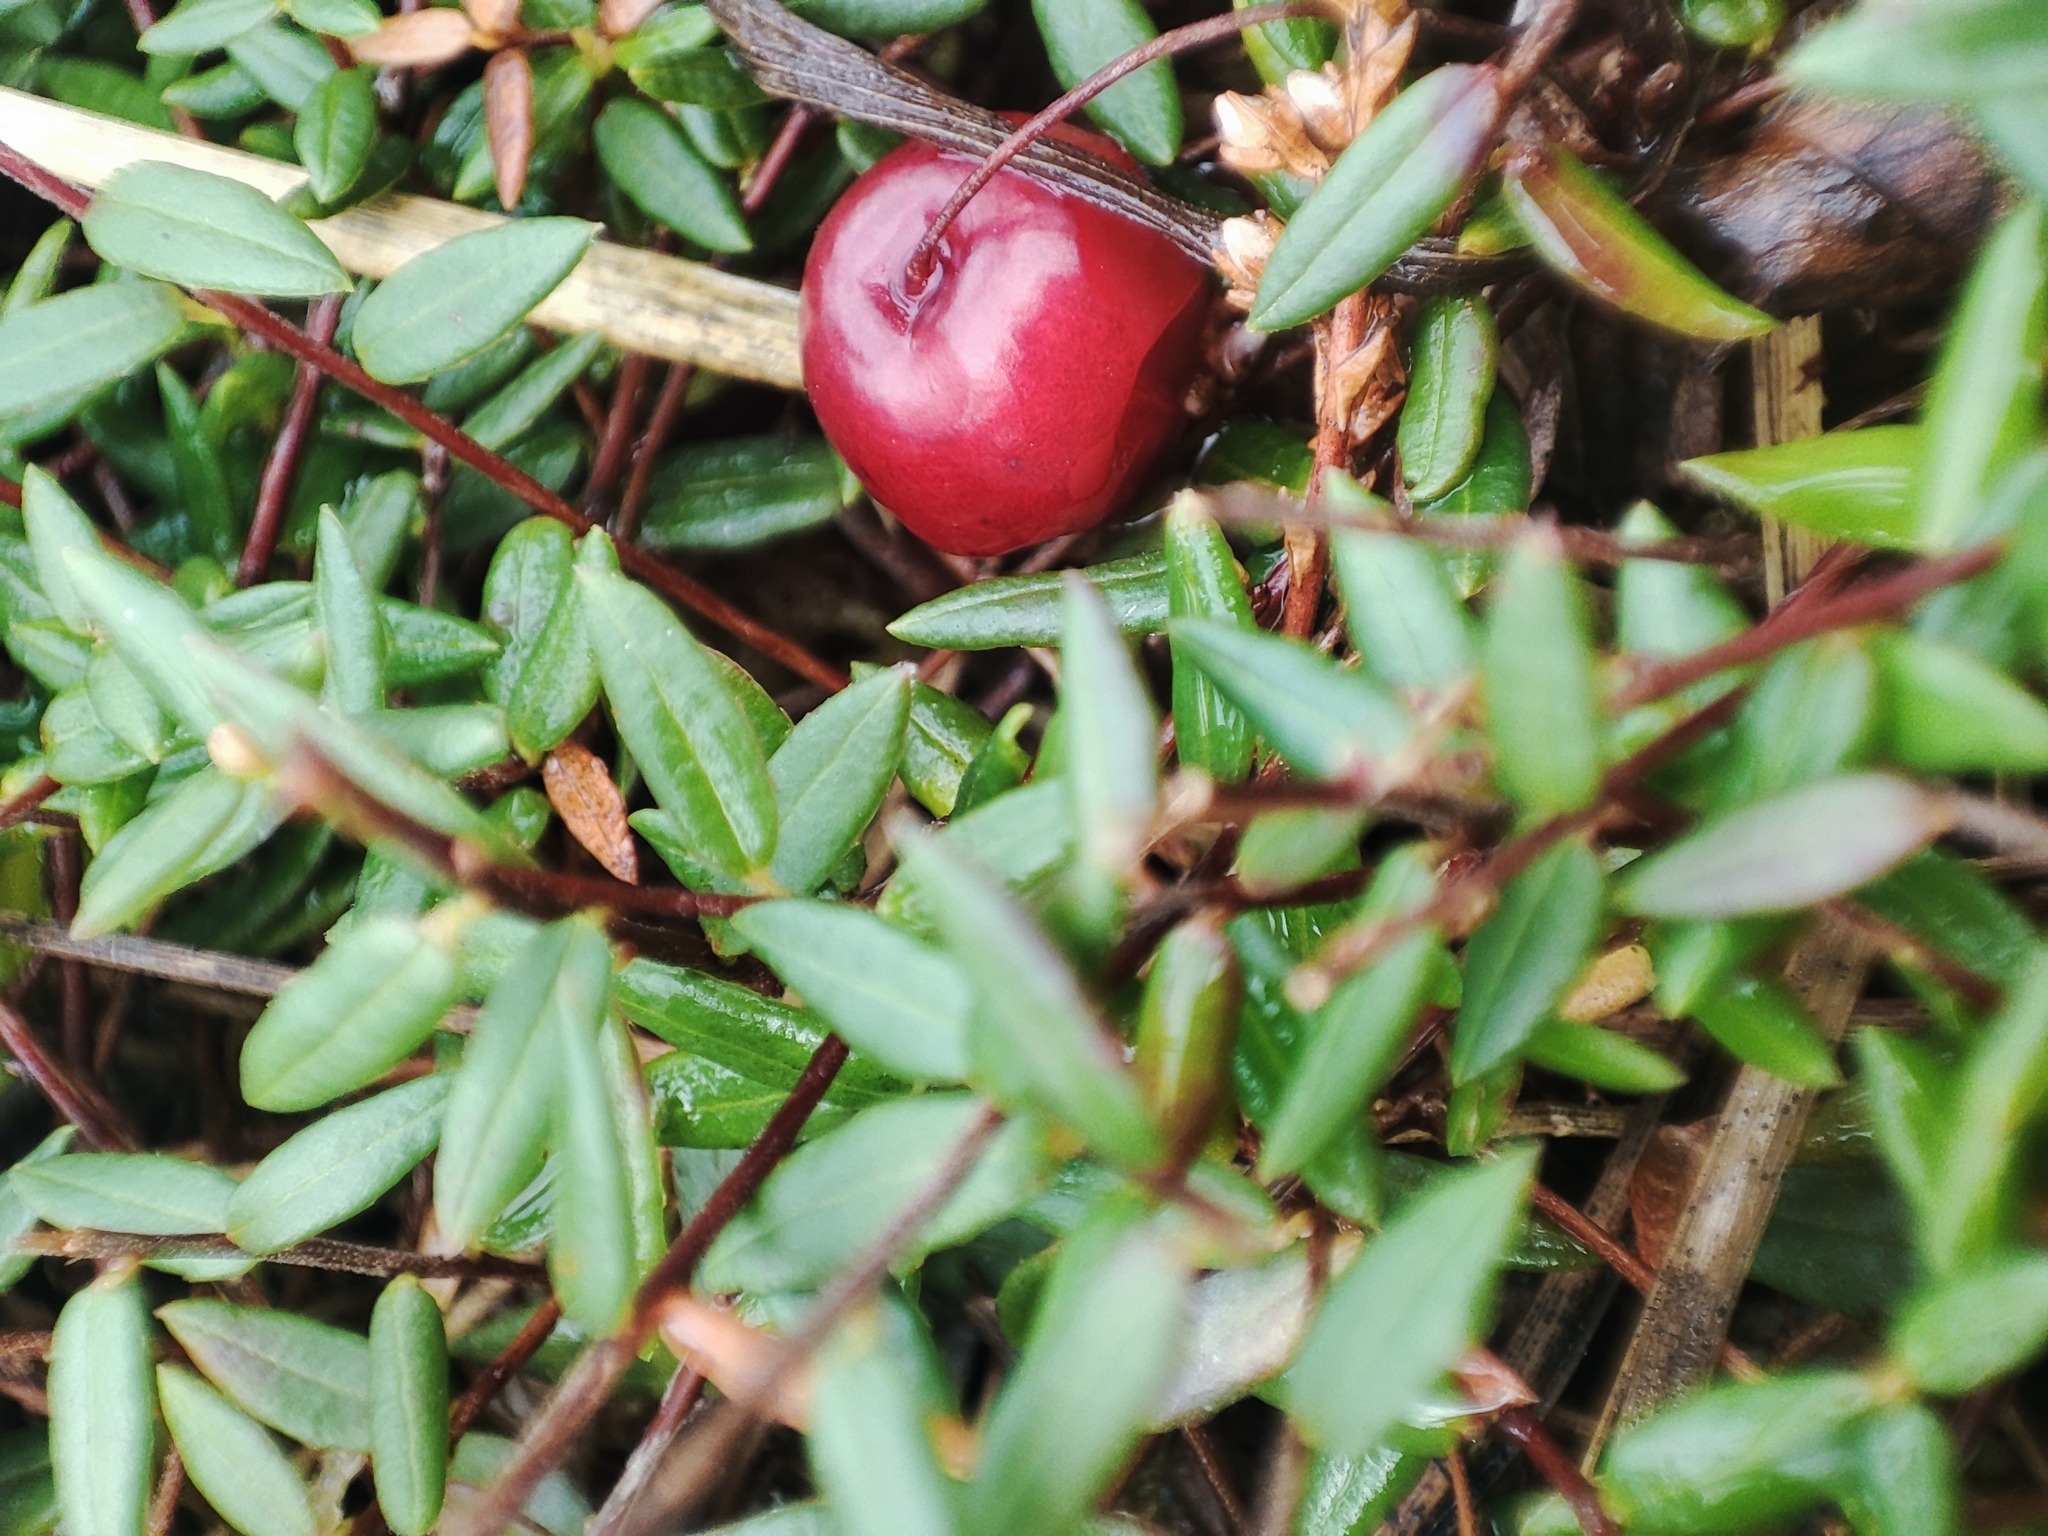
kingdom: Plantae
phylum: Tracheophyta
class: Magnoliopsida
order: Ericales
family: Ericaceae
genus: Vaccinium
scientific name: Vaccinium oxycoccos
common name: Cranberry
